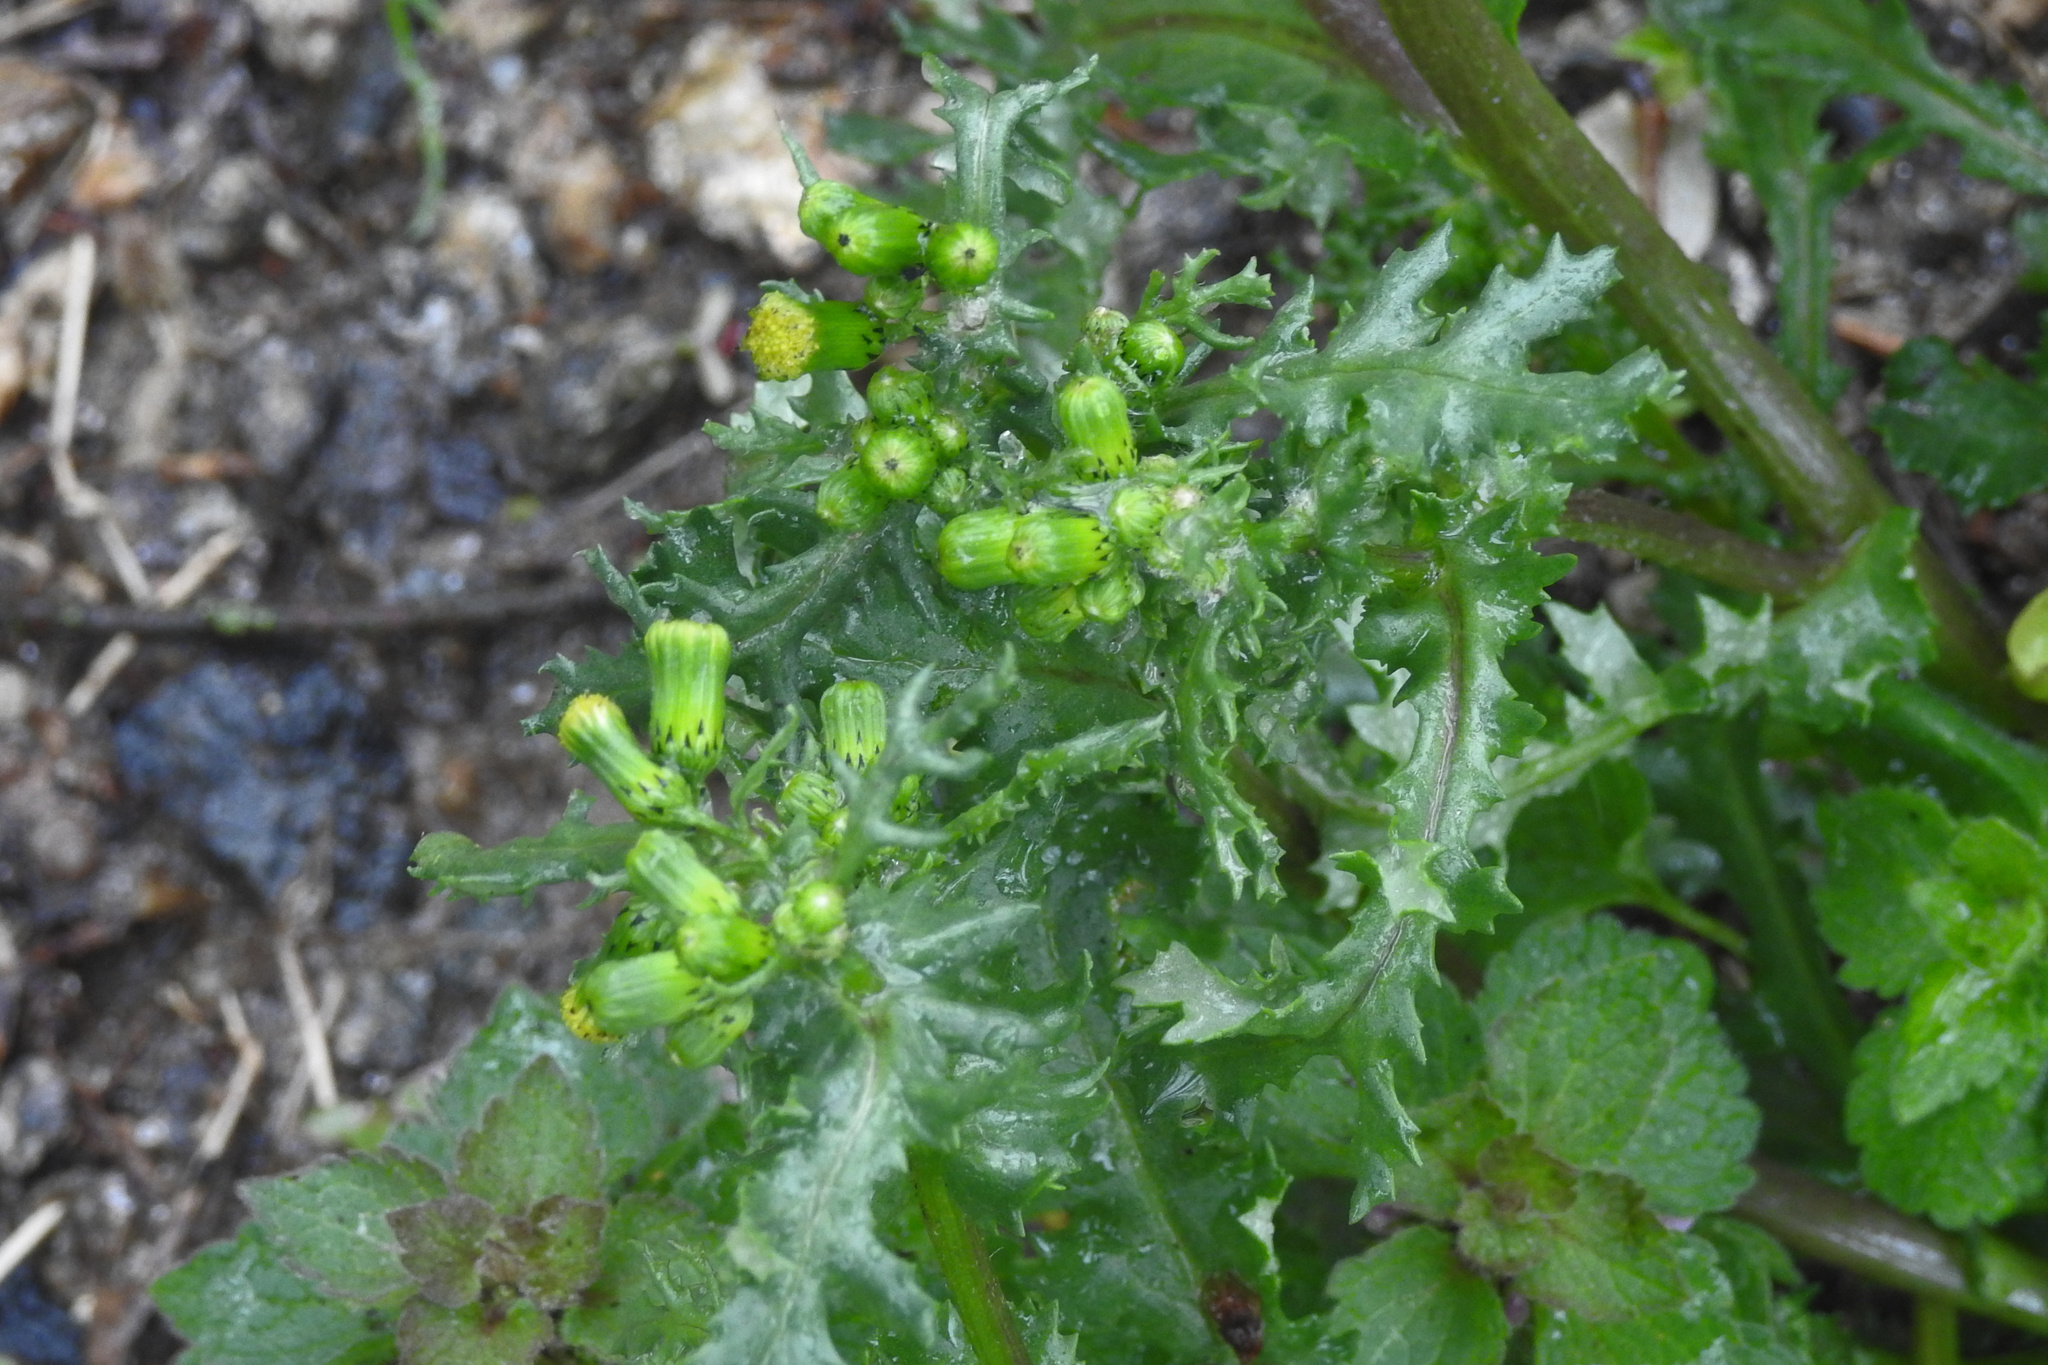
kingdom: Plantae
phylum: Tracheophyta
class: Magnoliopsida
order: Asterales
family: Asteraceae
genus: Senecio
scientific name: Senecio vulgaris
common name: Old-man-in-the-spring
